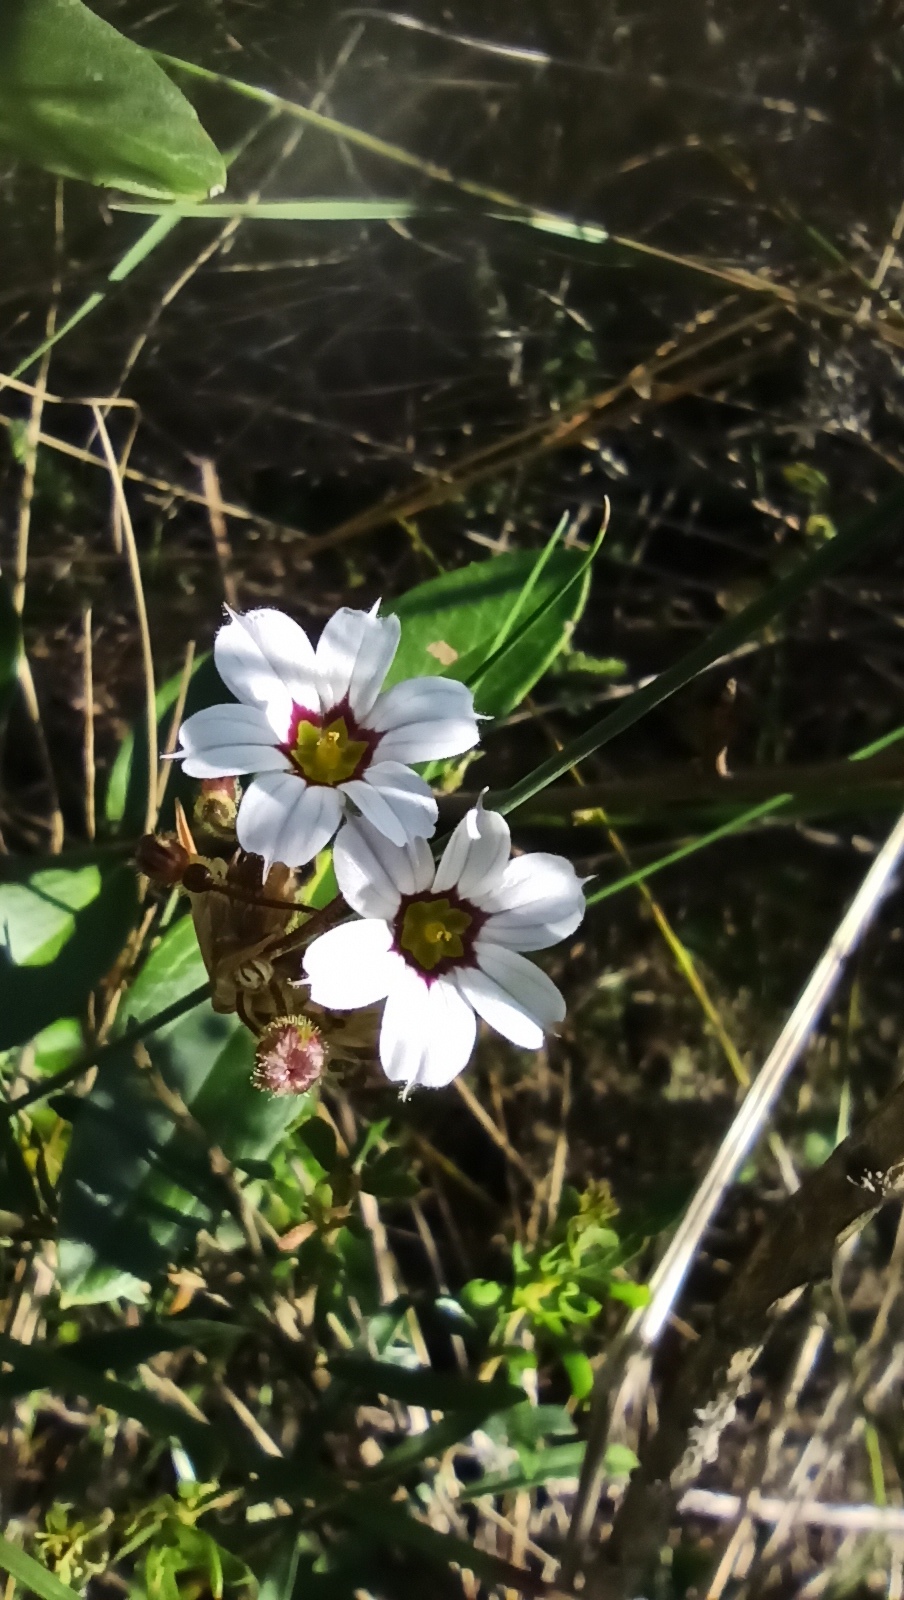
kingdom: Plantae
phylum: Tracheophyta
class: Liliopsida
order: Asparagales
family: Iridaceae
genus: Sisyrinchium
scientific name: Sisyrinchium pampeanum
